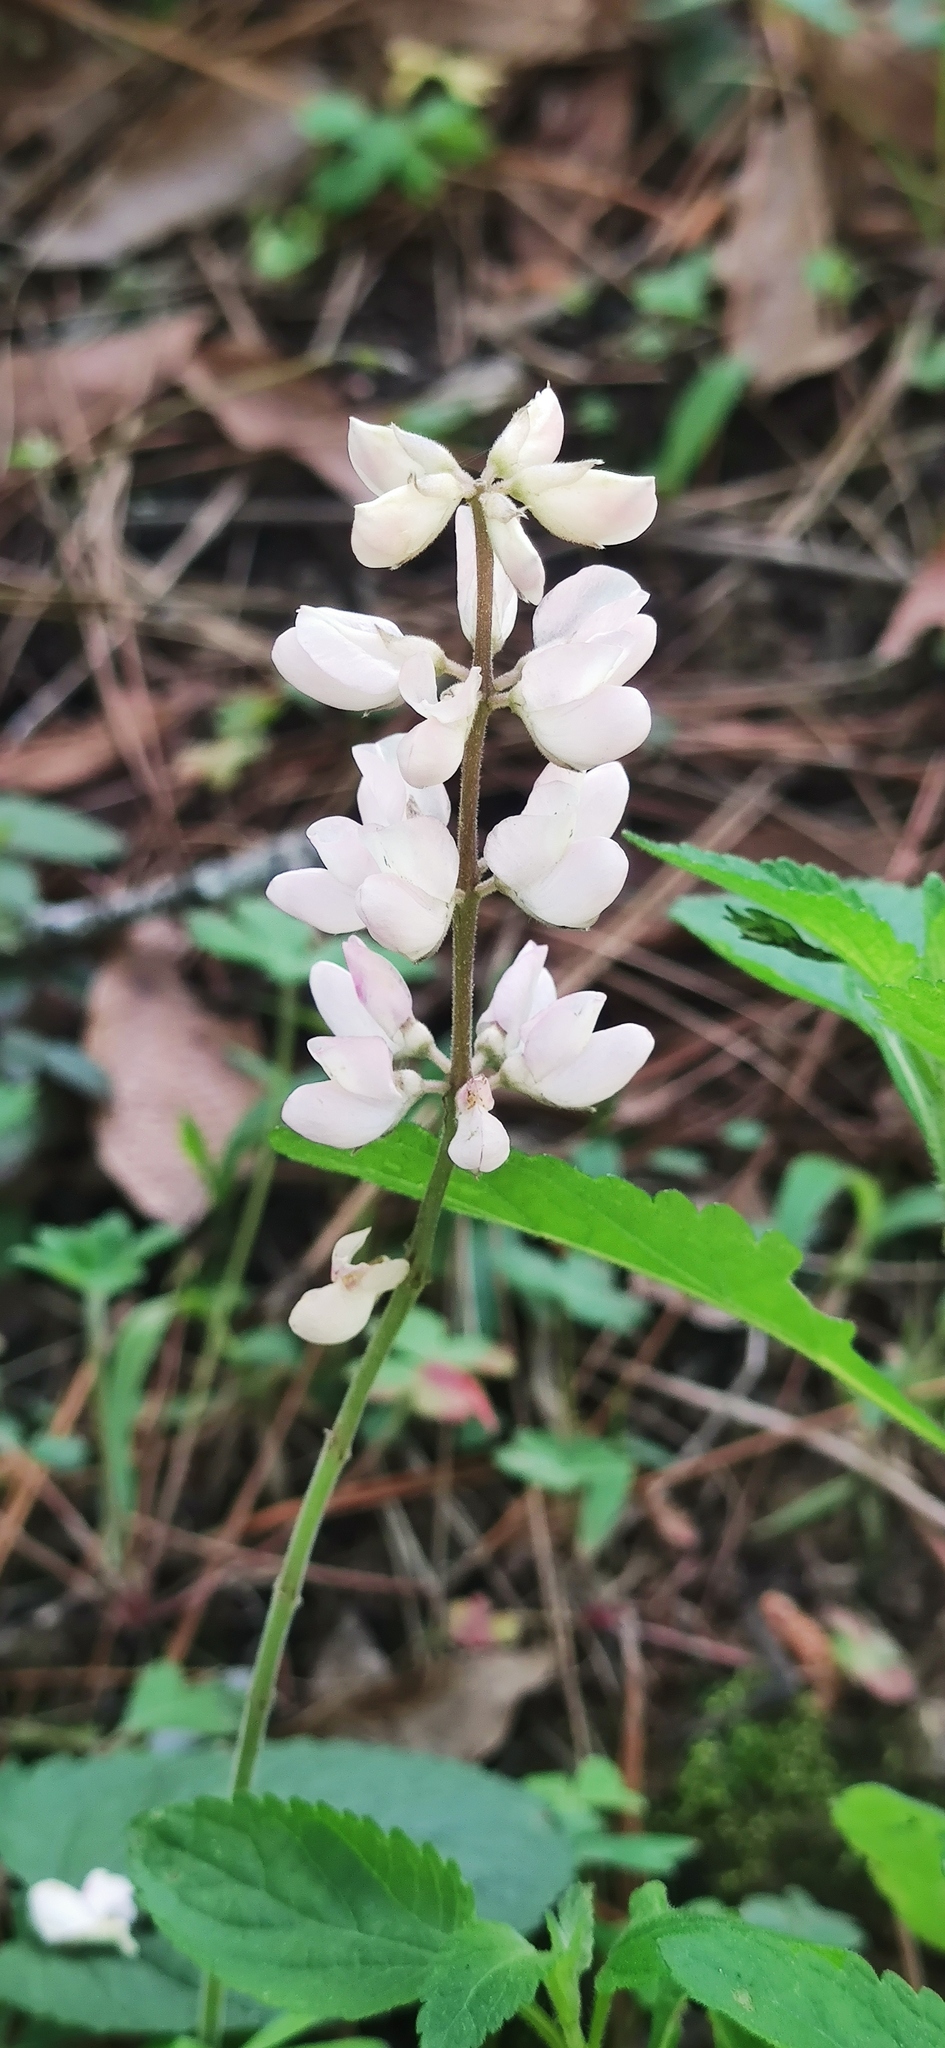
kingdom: Plantae
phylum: Tracheophyta
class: Magnoliopsida
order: Fabales
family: Fabaceae
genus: Lupinus
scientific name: Lupinus caballoanus
